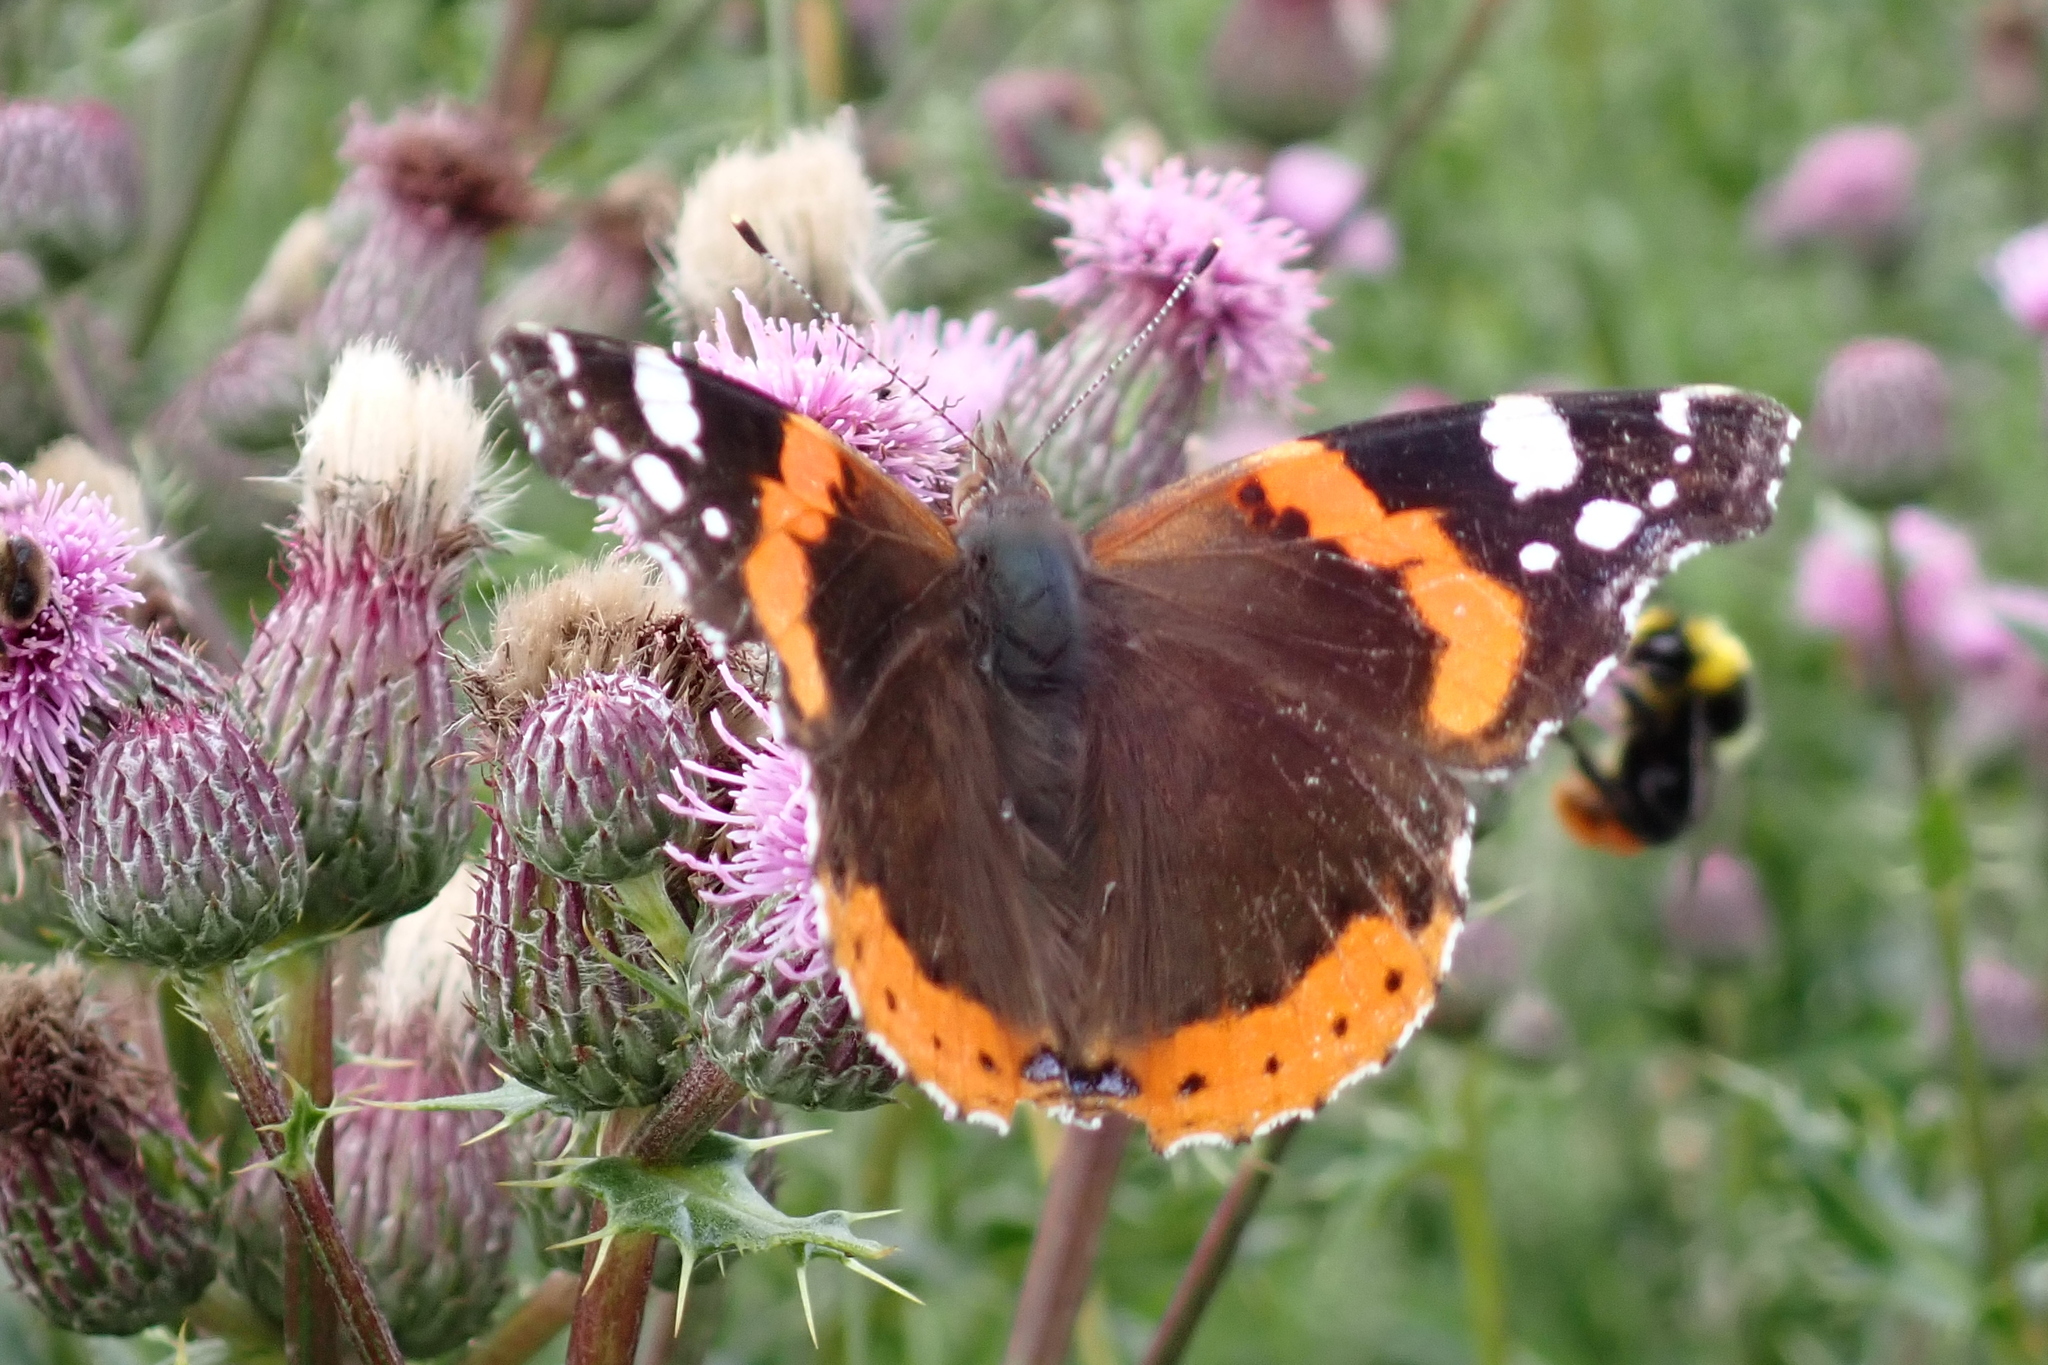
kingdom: Animalia
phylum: Arthropoda
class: Insecta
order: Lepidoptera
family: Nymphalidae
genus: Vanessa
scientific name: Vanessa atalanta
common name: Red admiral
